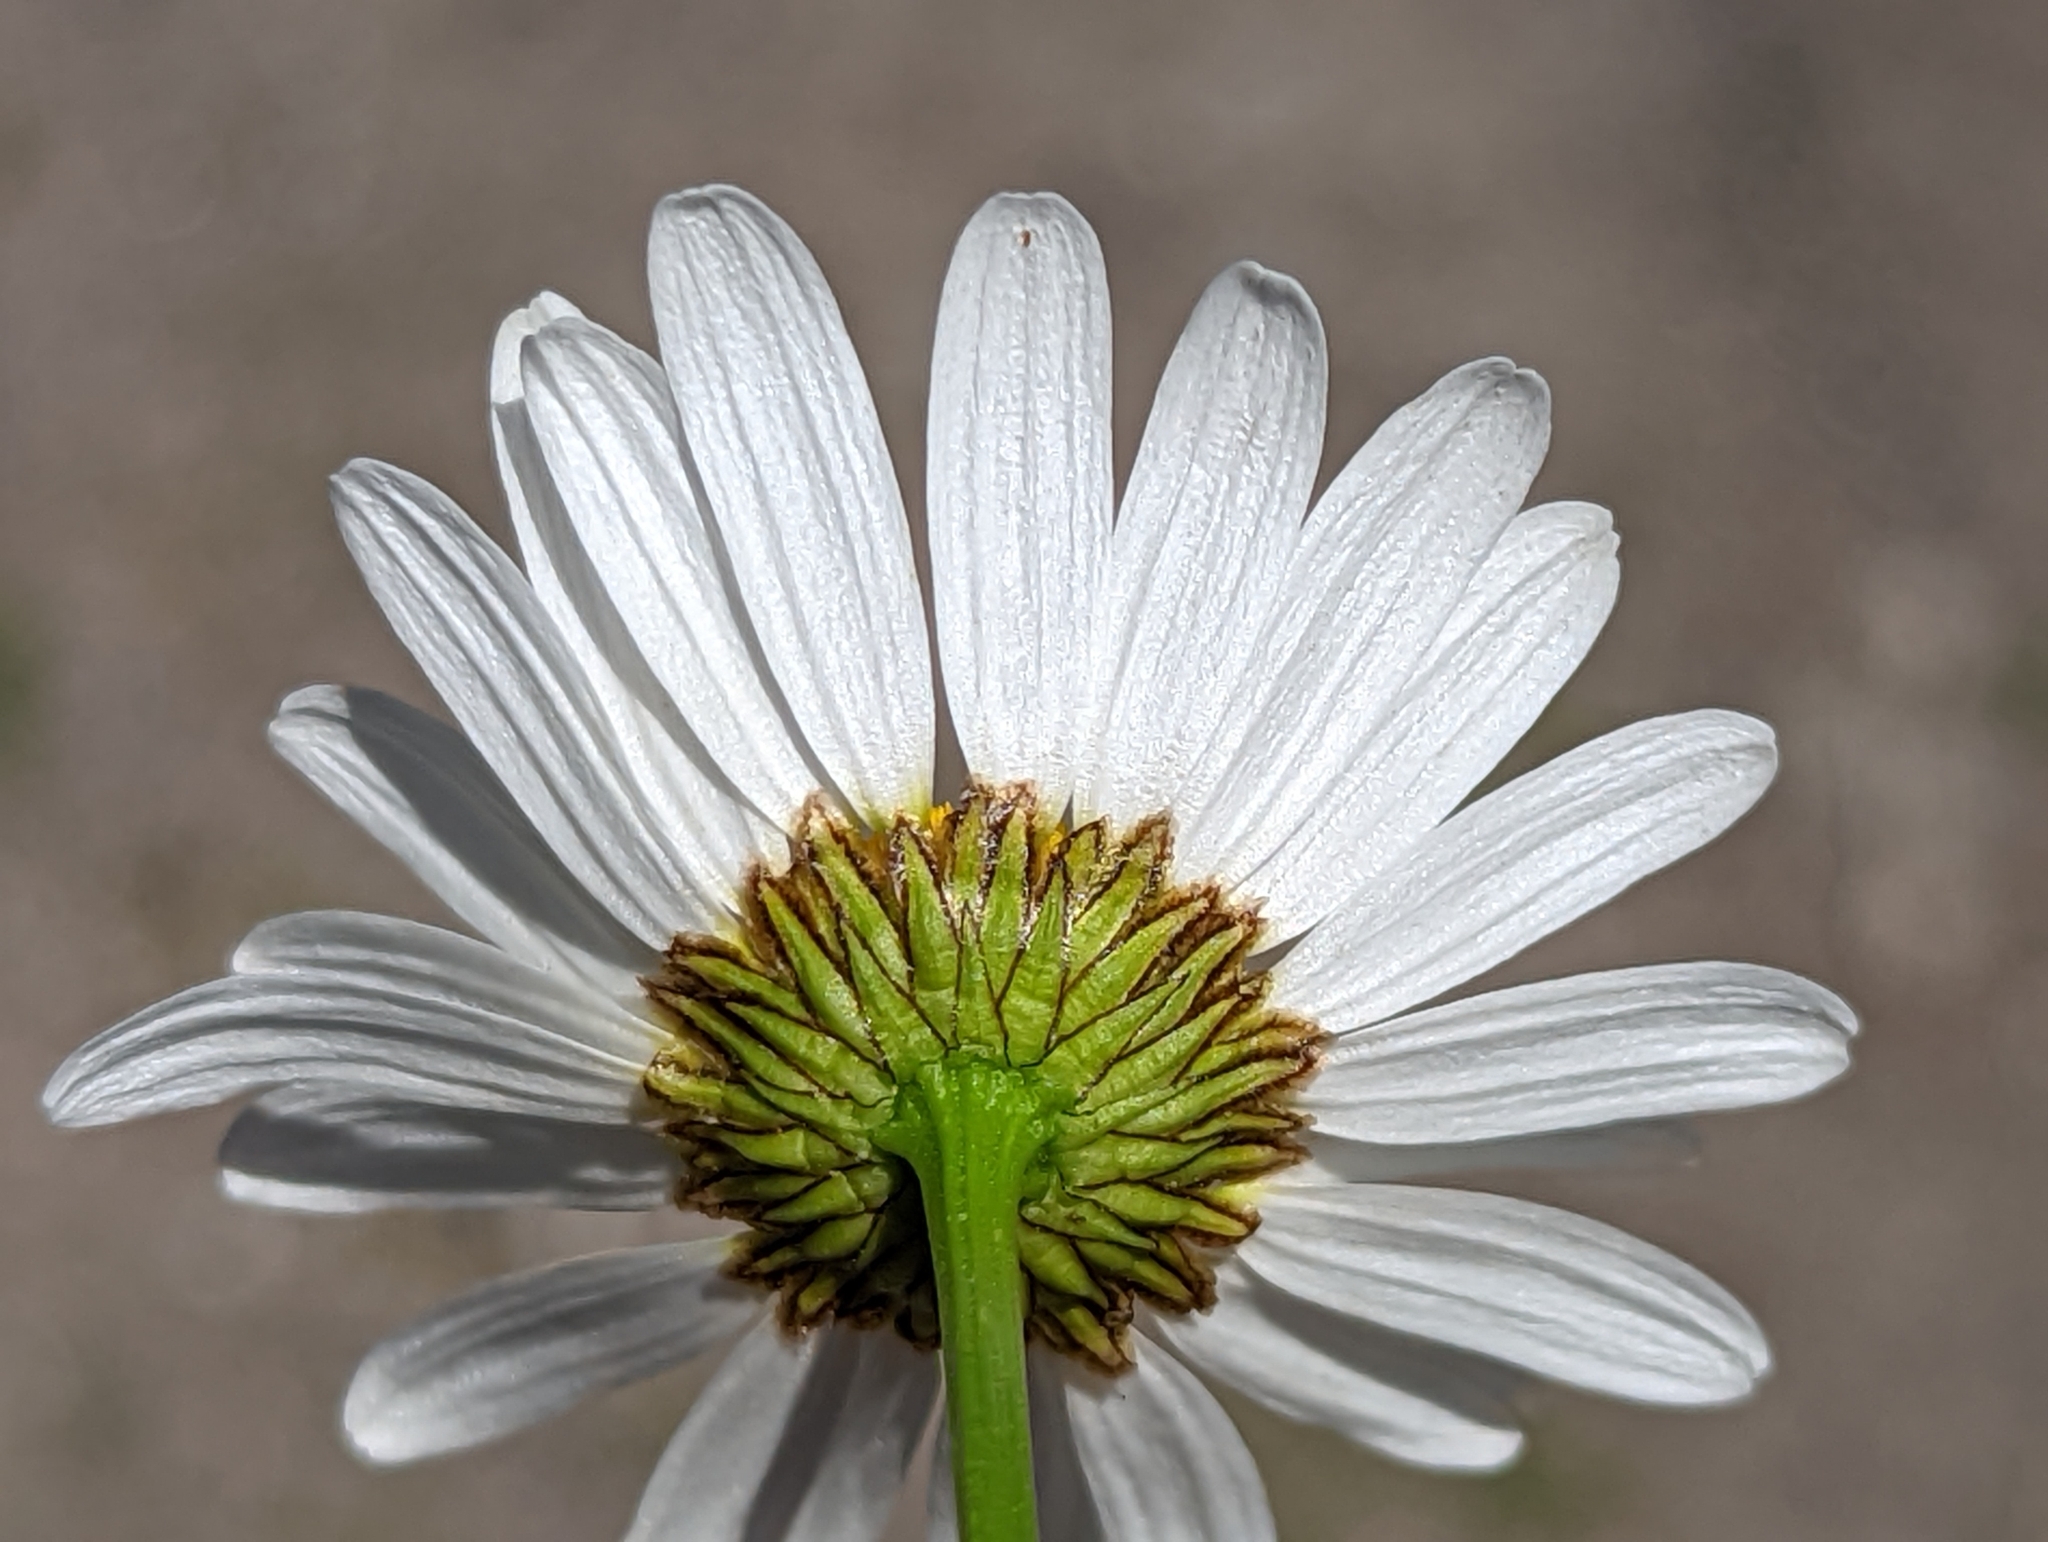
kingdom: Plantae
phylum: Tracheophyta
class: Magnoliopsida
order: Asterales
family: Asteraceae
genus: Leucanthemum
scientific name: Leucanthemum vulgare
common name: Oxeye daisy
